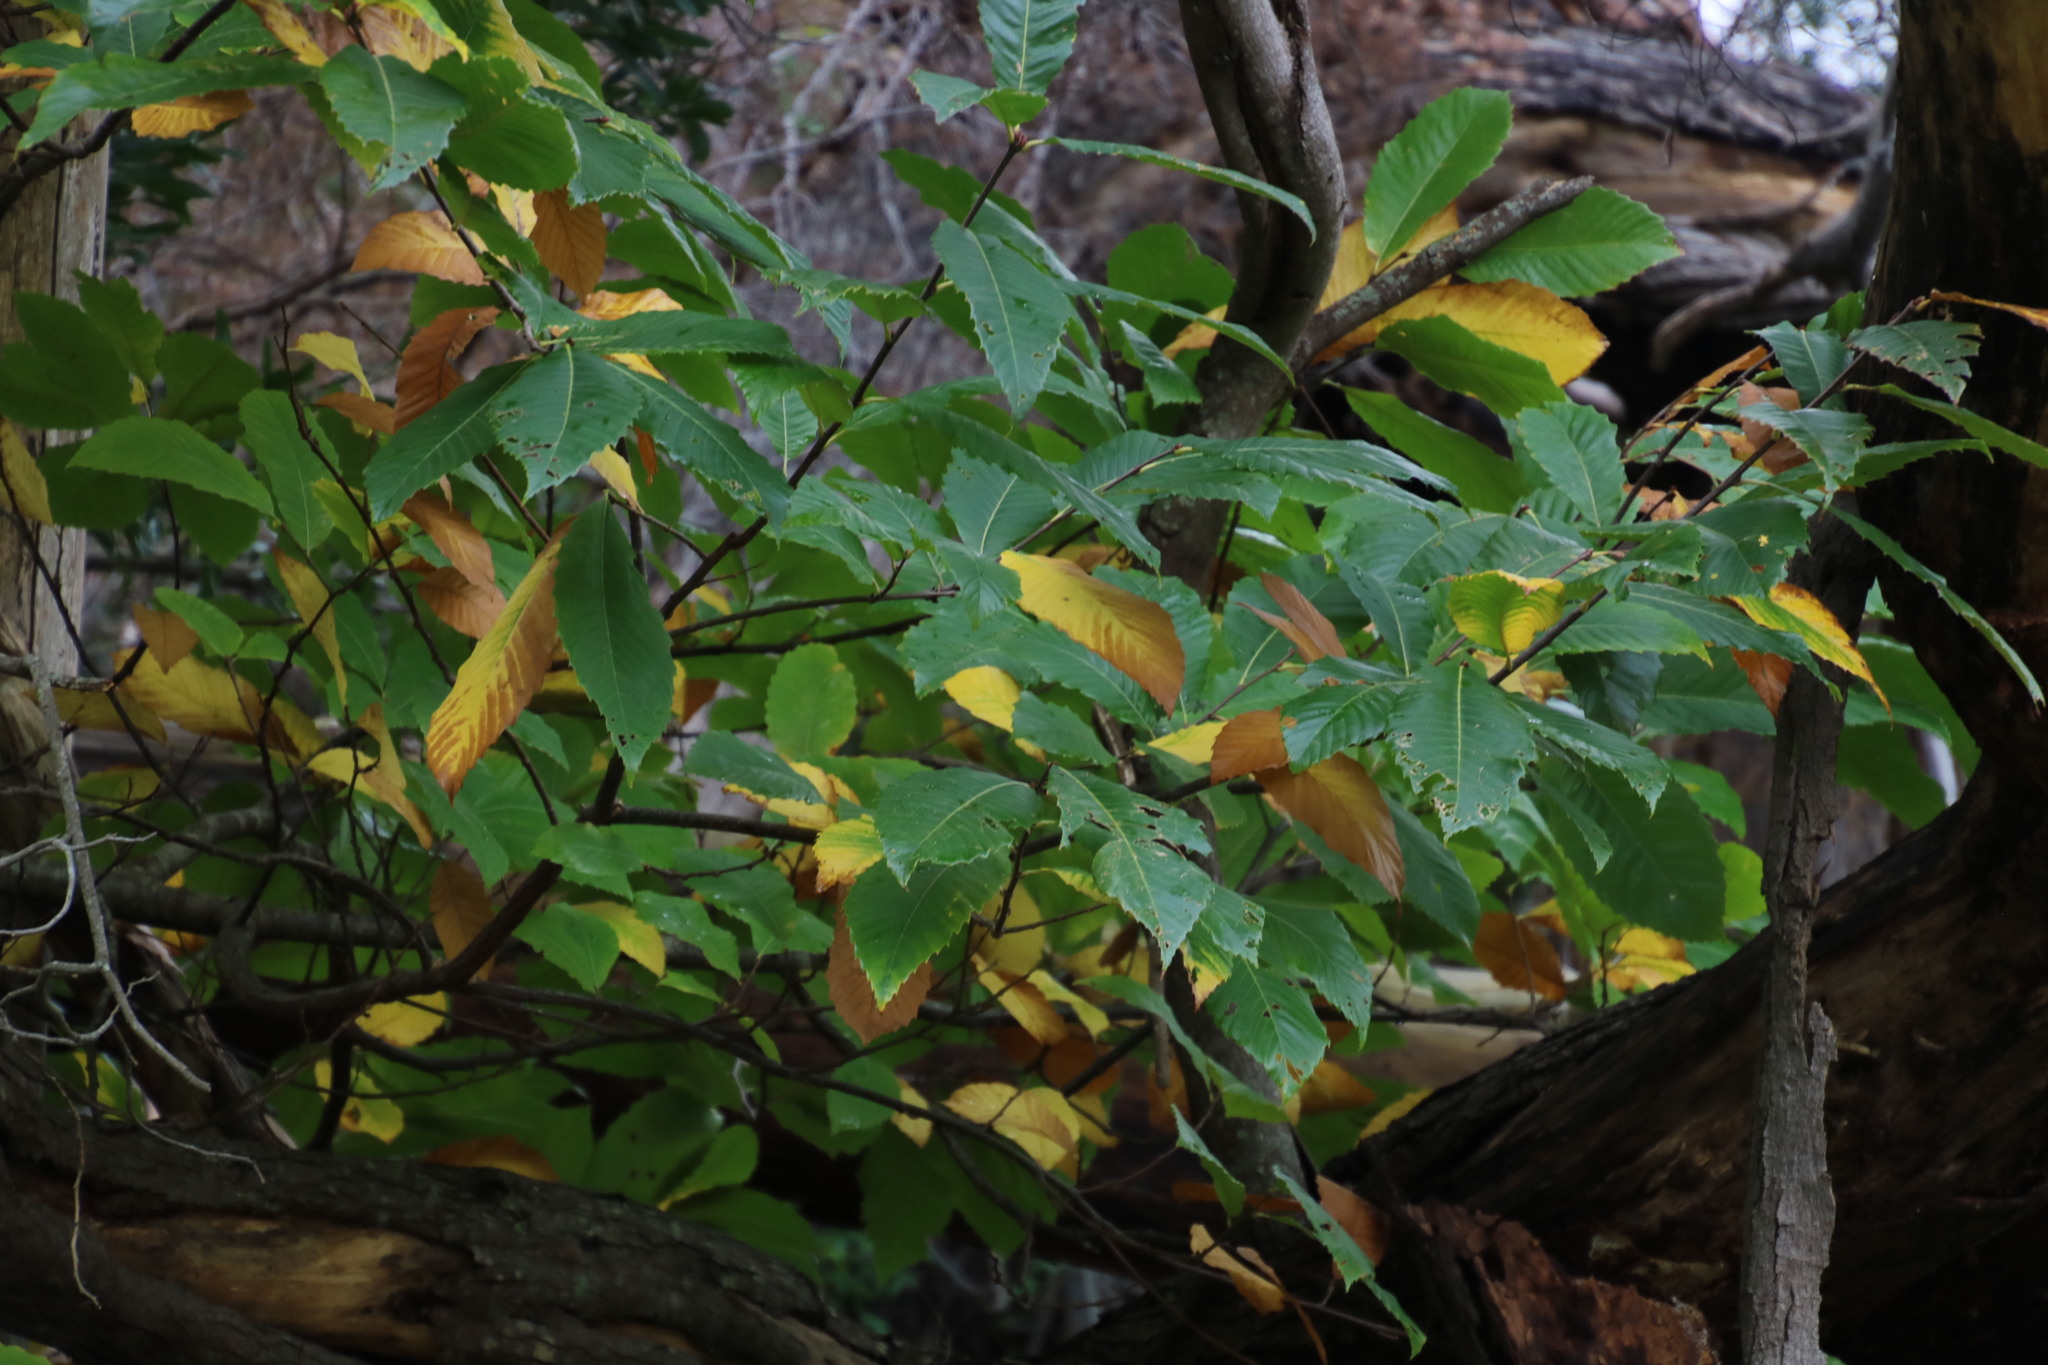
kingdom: Plantae
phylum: Tracheophyta
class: Magnoliopsida
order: Fagales
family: Fagaceae
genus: Castanea
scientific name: Castanea sativa
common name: Sweet chestnut
